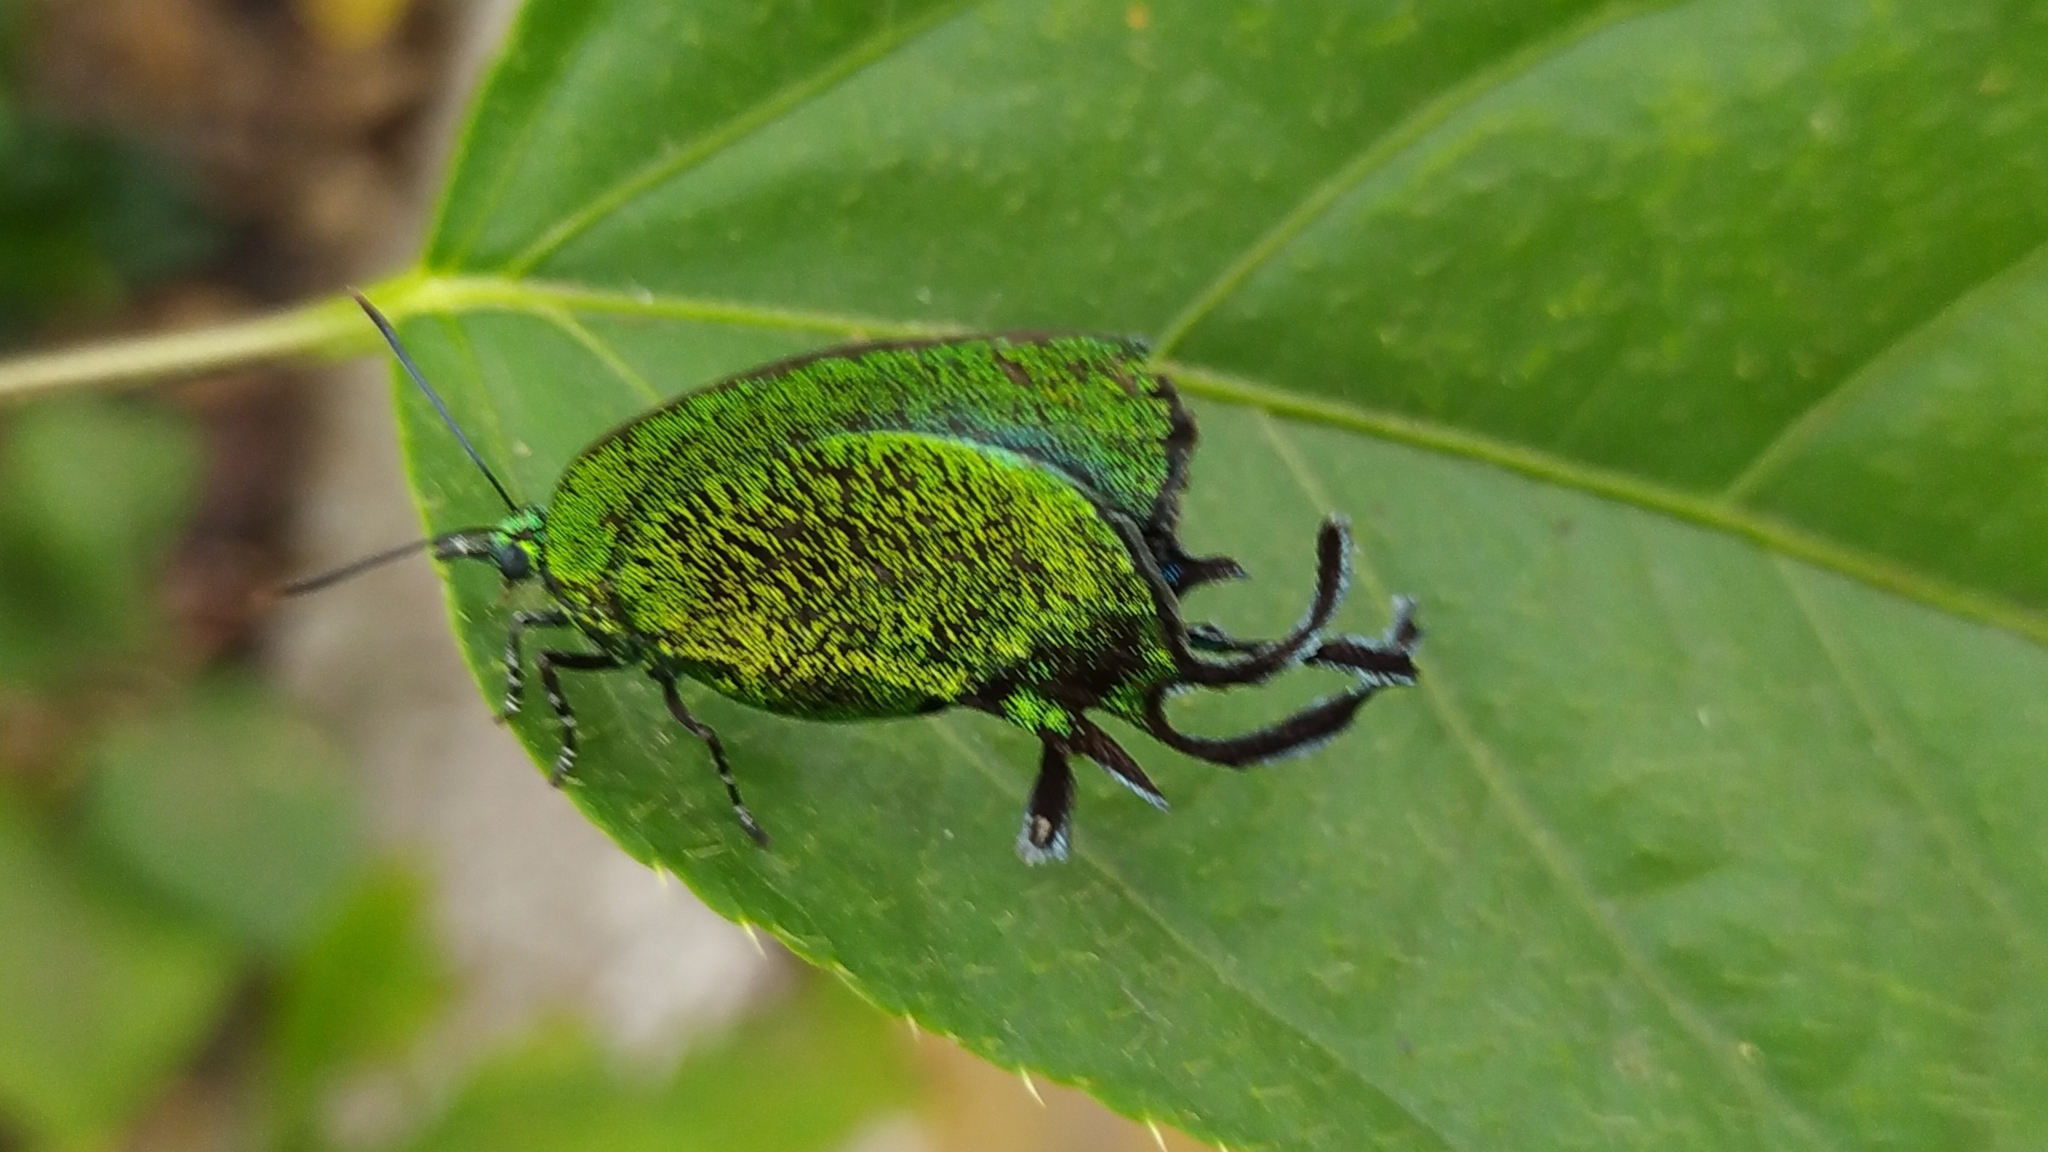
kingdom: Animalia
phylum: Arthropoda
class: Insecta
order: Lepidoptera
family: Lycaenidae
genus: Arcas
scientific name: Arcas imperialis
